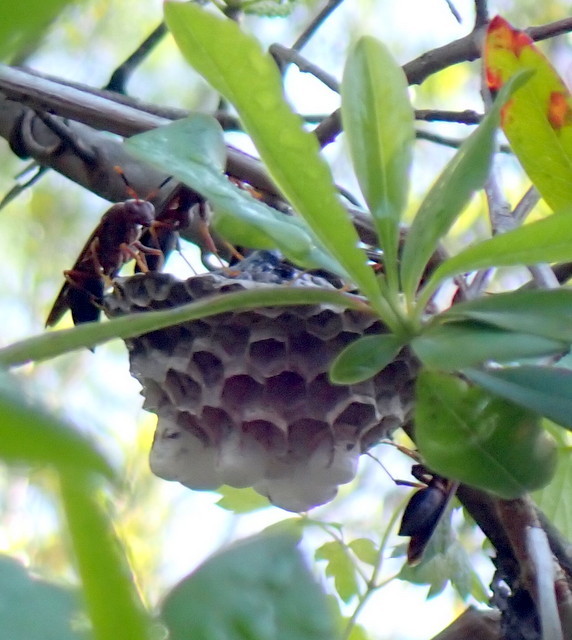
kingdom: Animalia
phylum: Arthropoda
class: Insecta
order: Hymenoptera
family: Eumenidae
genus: Polistes
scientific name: Polistes annularis
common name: Ringed paper wasp
